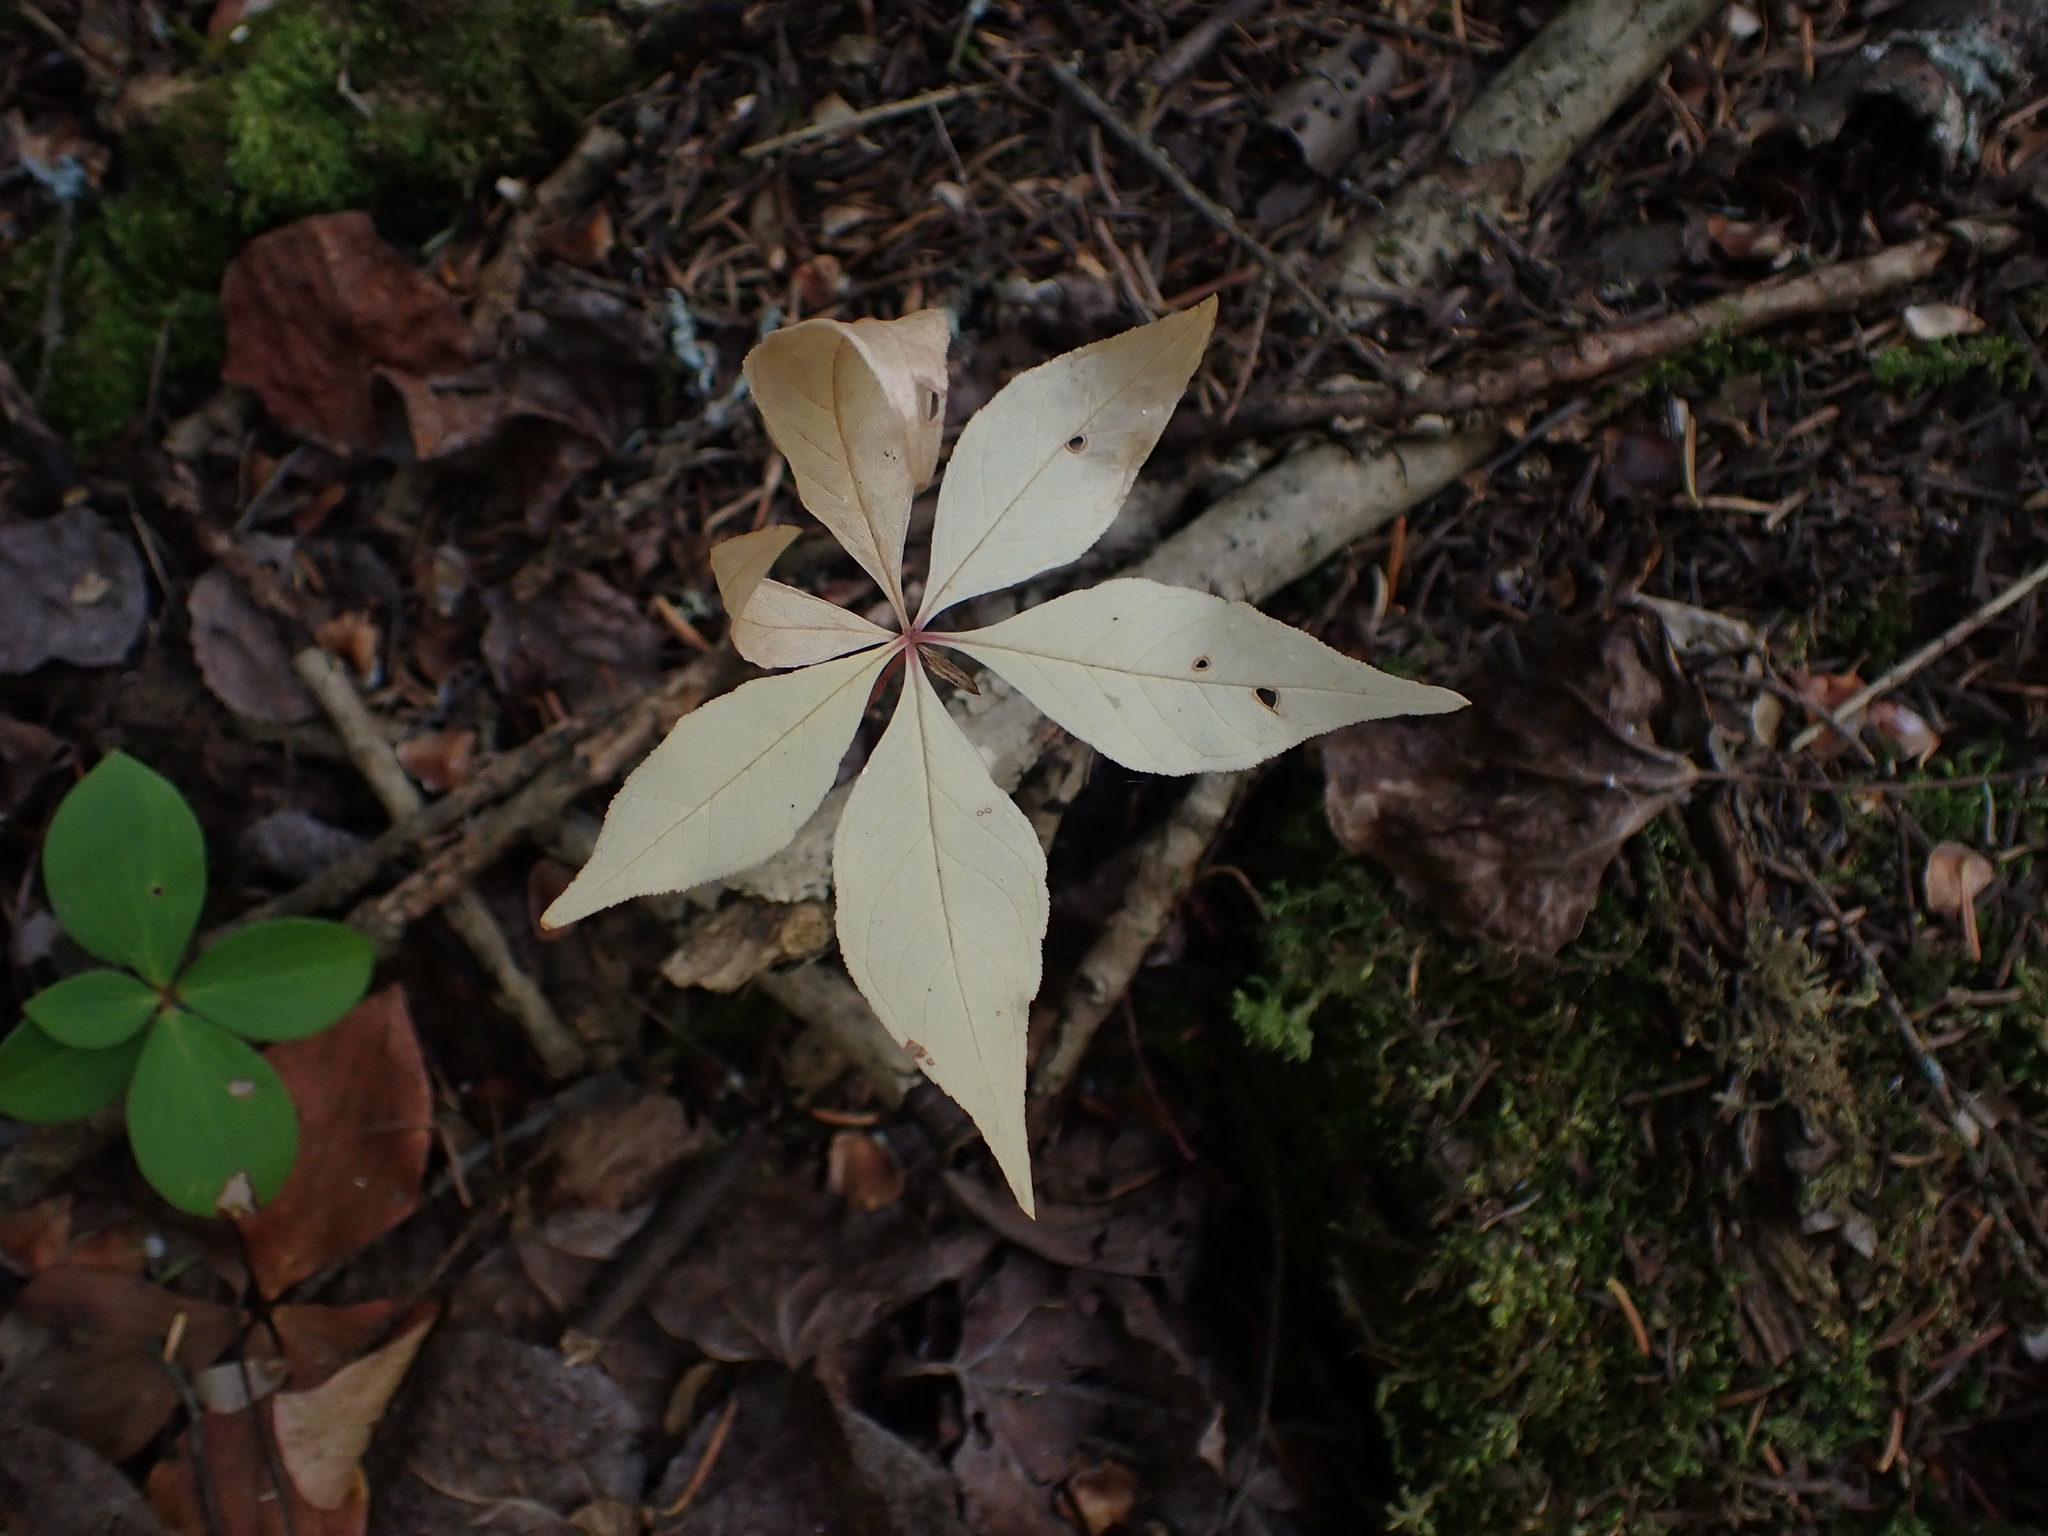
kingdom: Plantae
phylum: Tracheophyta
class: Magnoliopsida
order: Ericales
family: Primulaceae
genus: Lysimachia
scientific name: Lysimachia borealis
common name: American starflower
